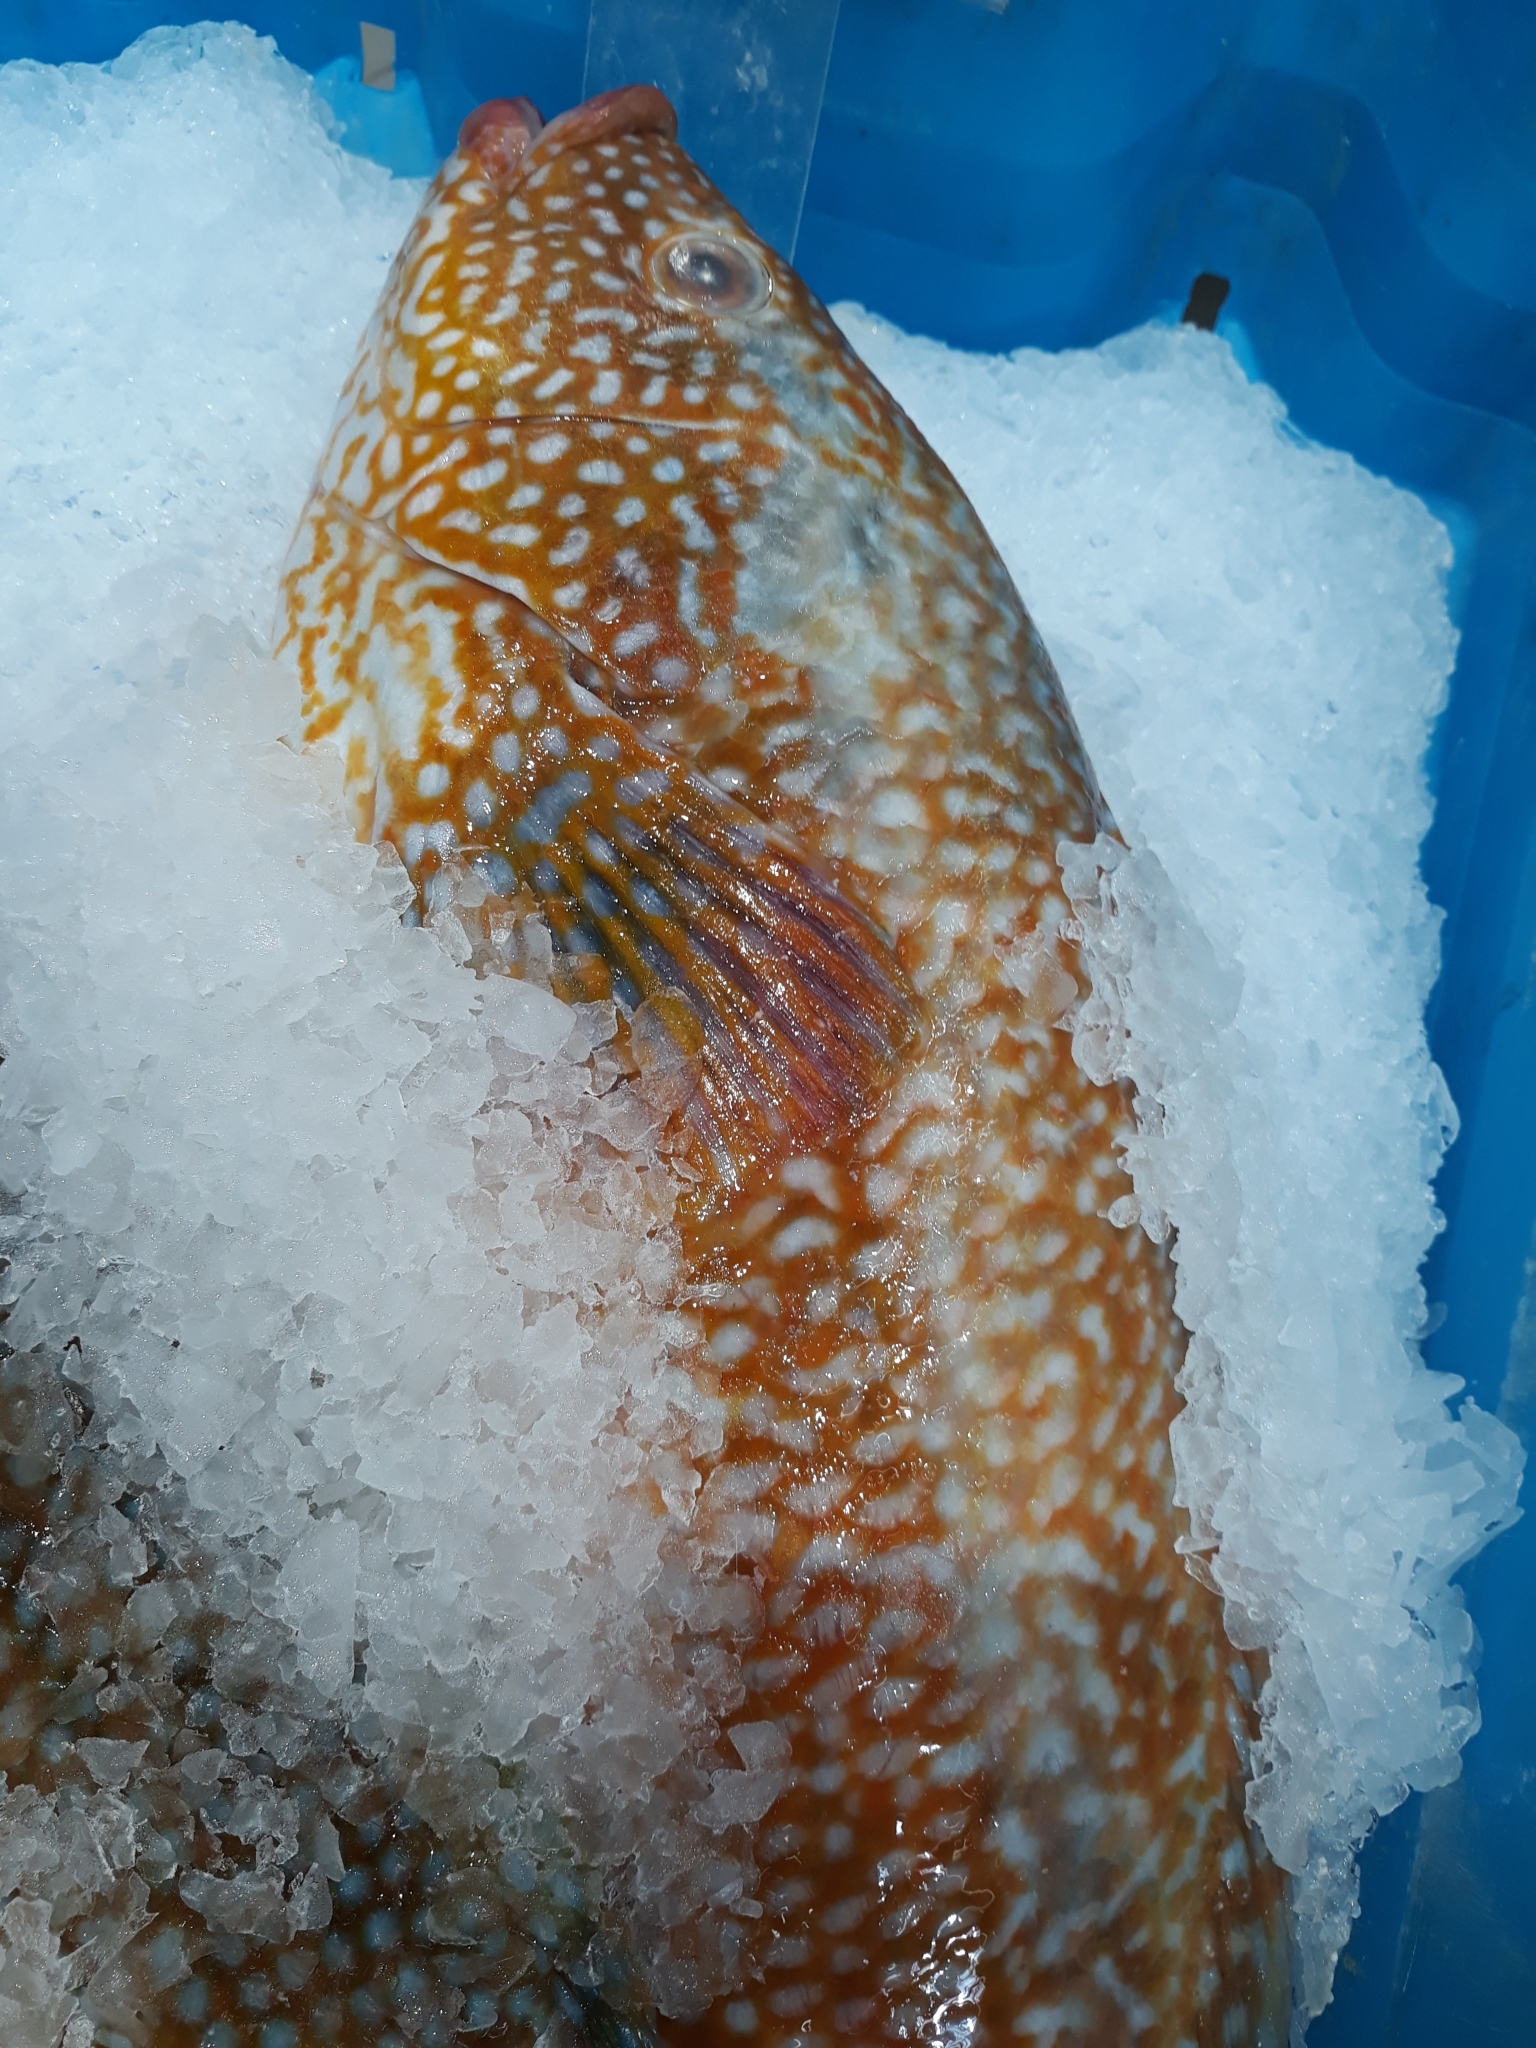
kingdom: Animalia
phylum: Chordata
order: Perciformes
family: Labridae
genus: Labrus
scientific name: Labrus bergylta
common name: Ballan wrasse
